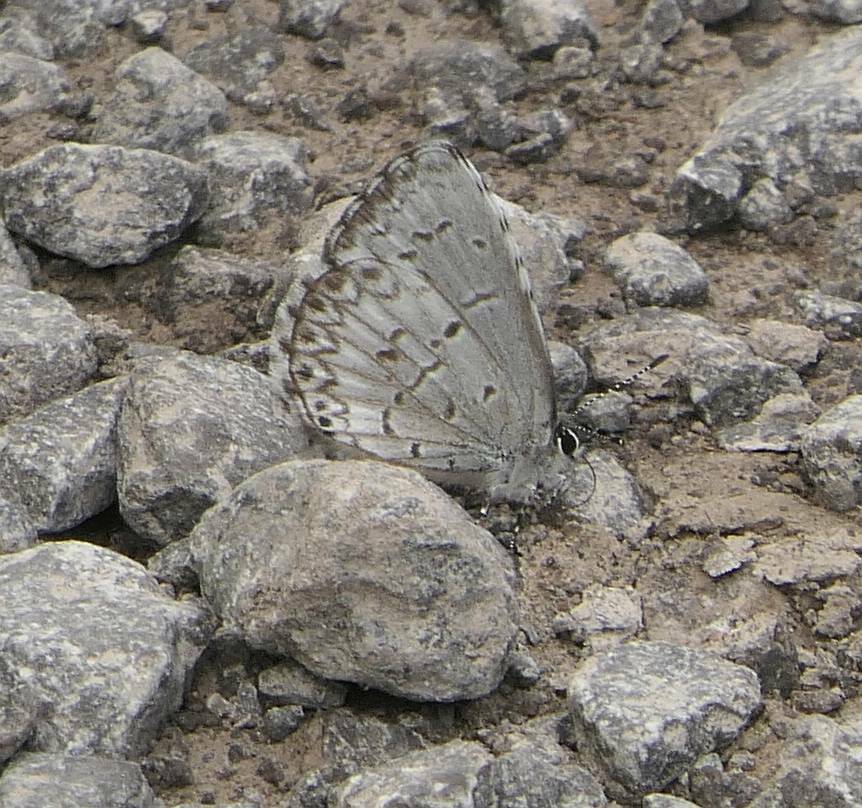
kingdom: Animalia
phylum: Arthropoda
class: Insecta
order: Lepidoptera
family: Lycaenidae
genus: Celastrina
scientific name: Celastrina lucia
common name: Lucia azure
